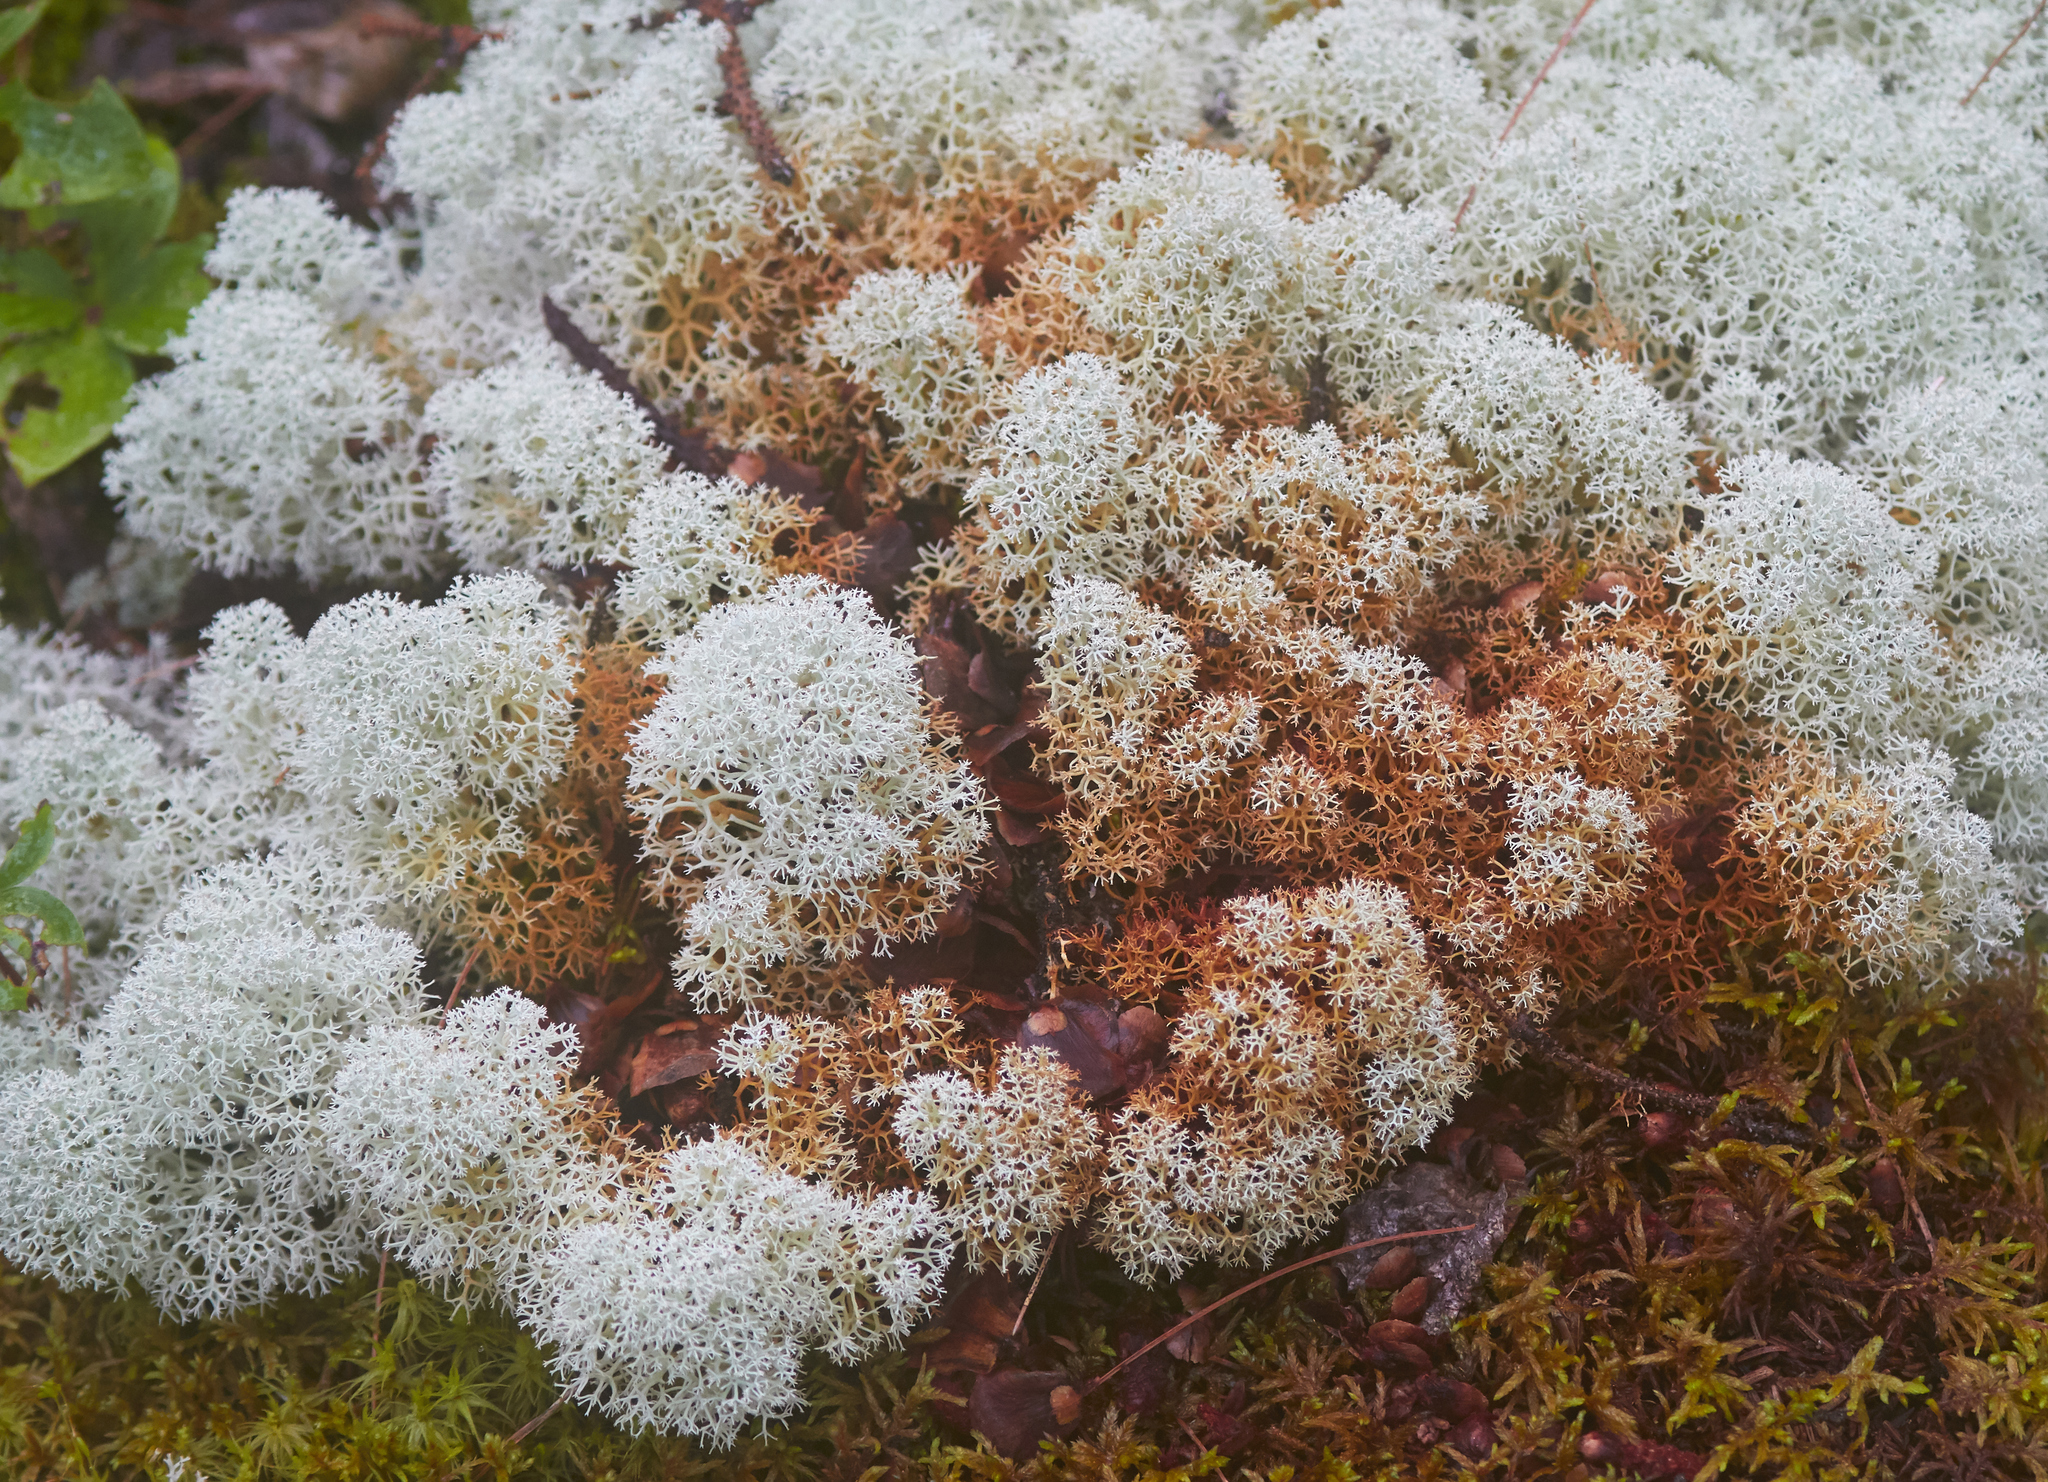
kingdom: Fungi
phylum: Ascomycota
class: Lecanoromycetes
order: Lecanorales
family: Cladoniaceae
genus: Cladonia
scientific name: Cladonia stellaris
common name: Star-tipped reindeer lichen
